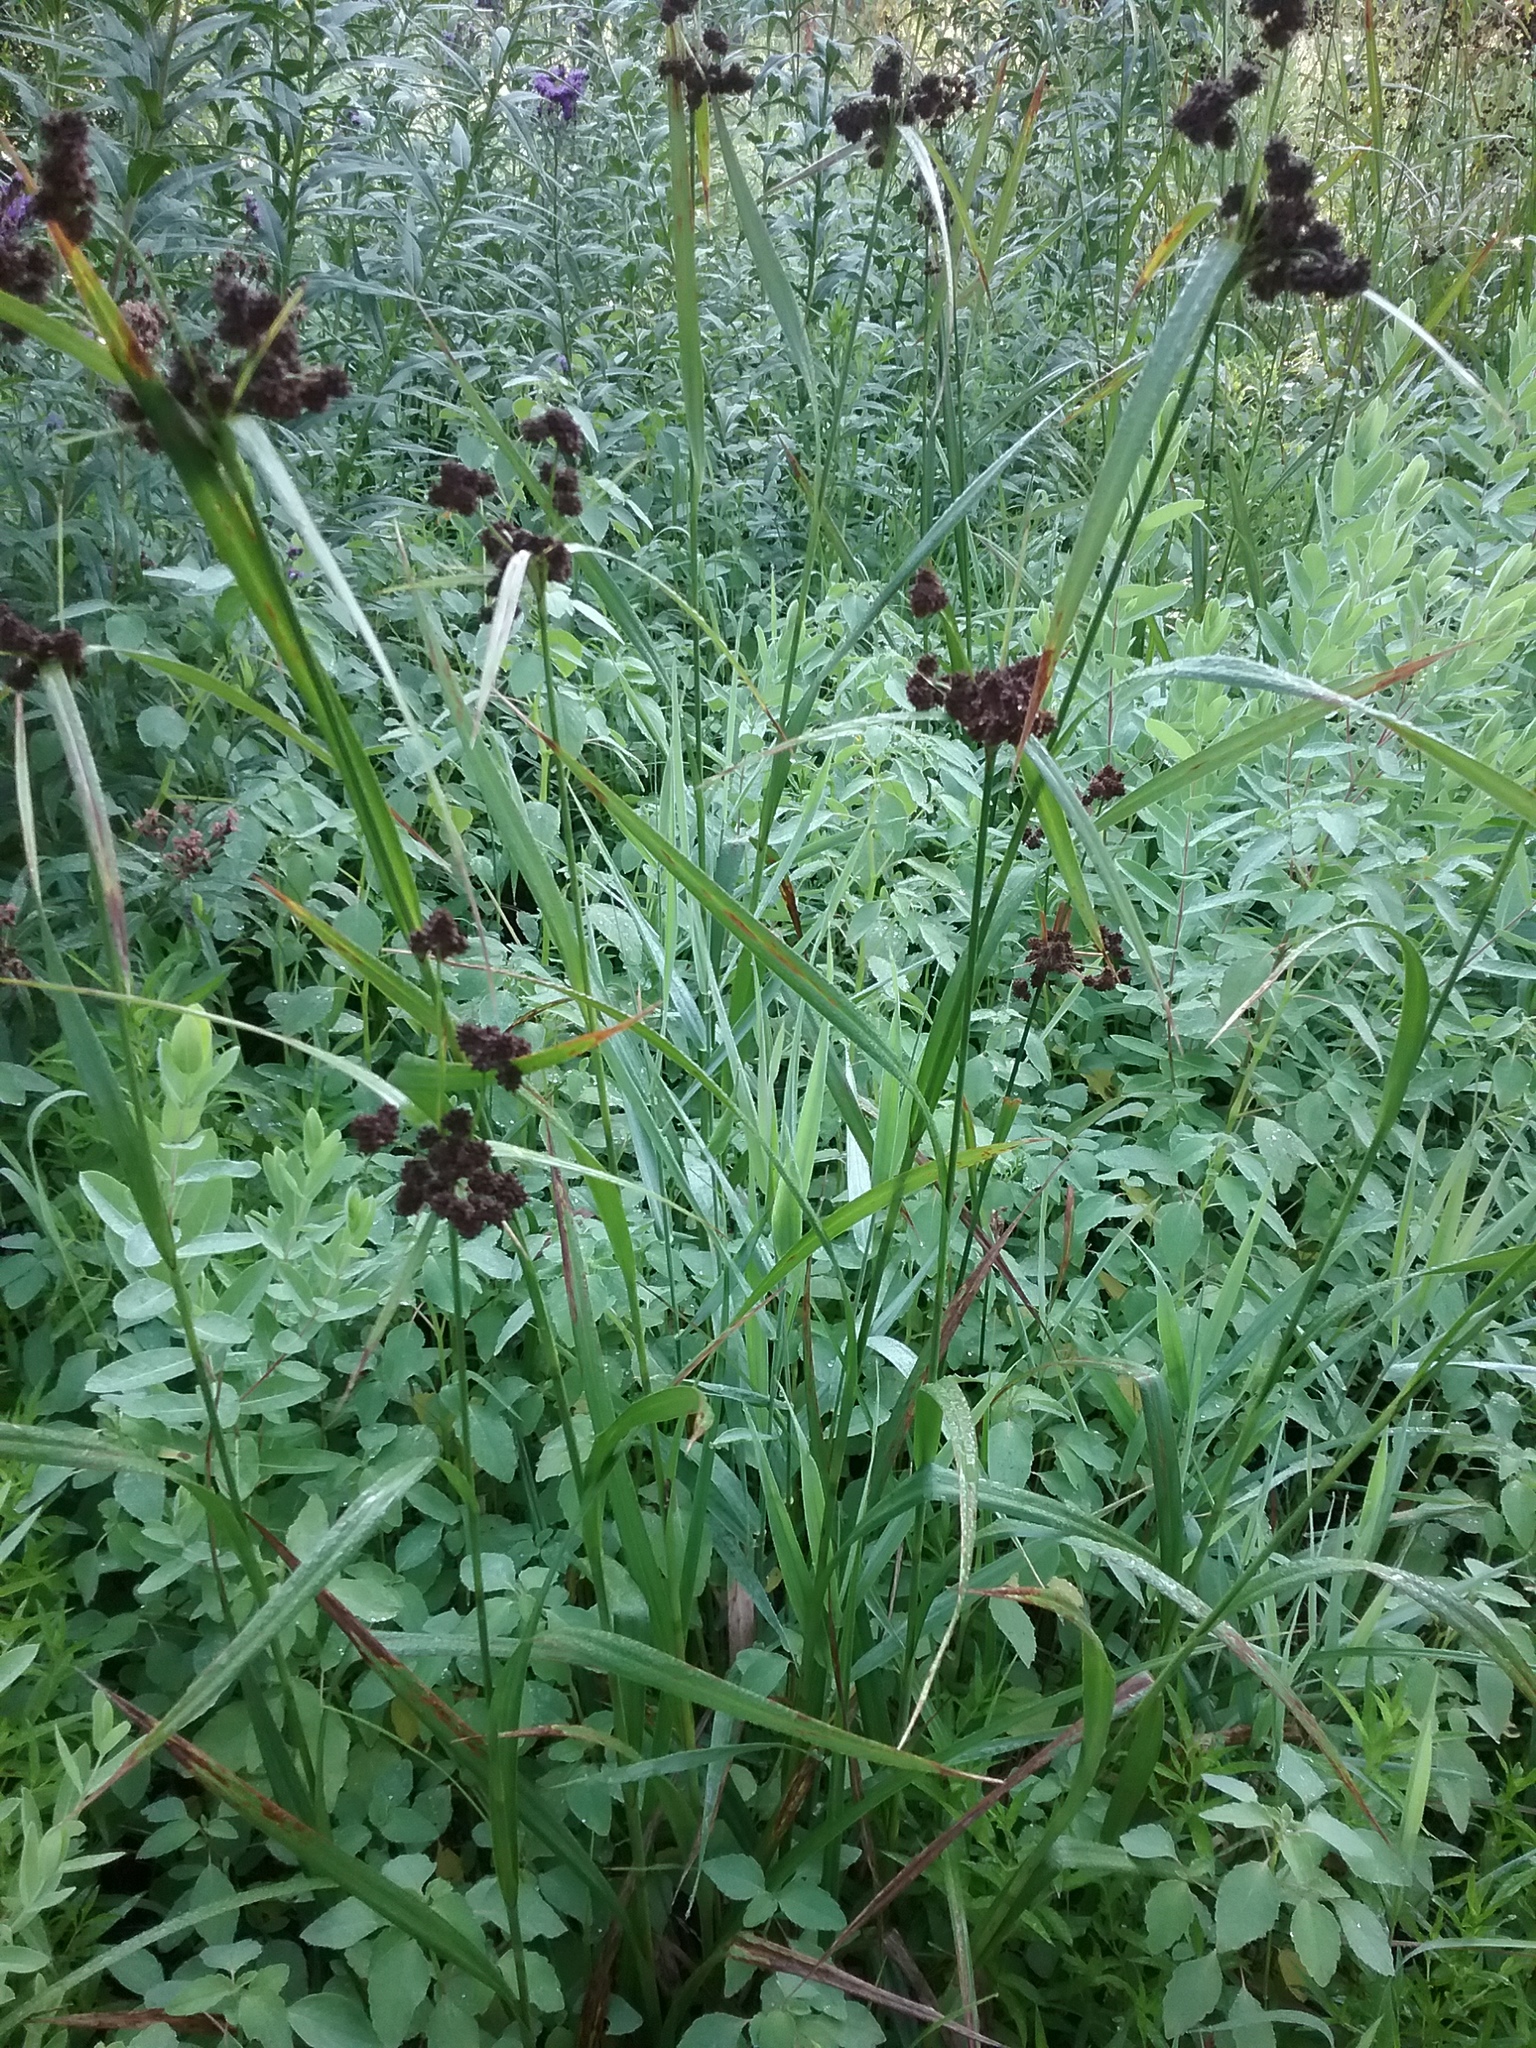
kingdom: Plantae
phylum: Tracheophyta
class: Liliopsida
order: Poales
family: Cyperaceae
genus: Scirpus
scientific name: Scirpus atrovirens
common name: Black bulrush
